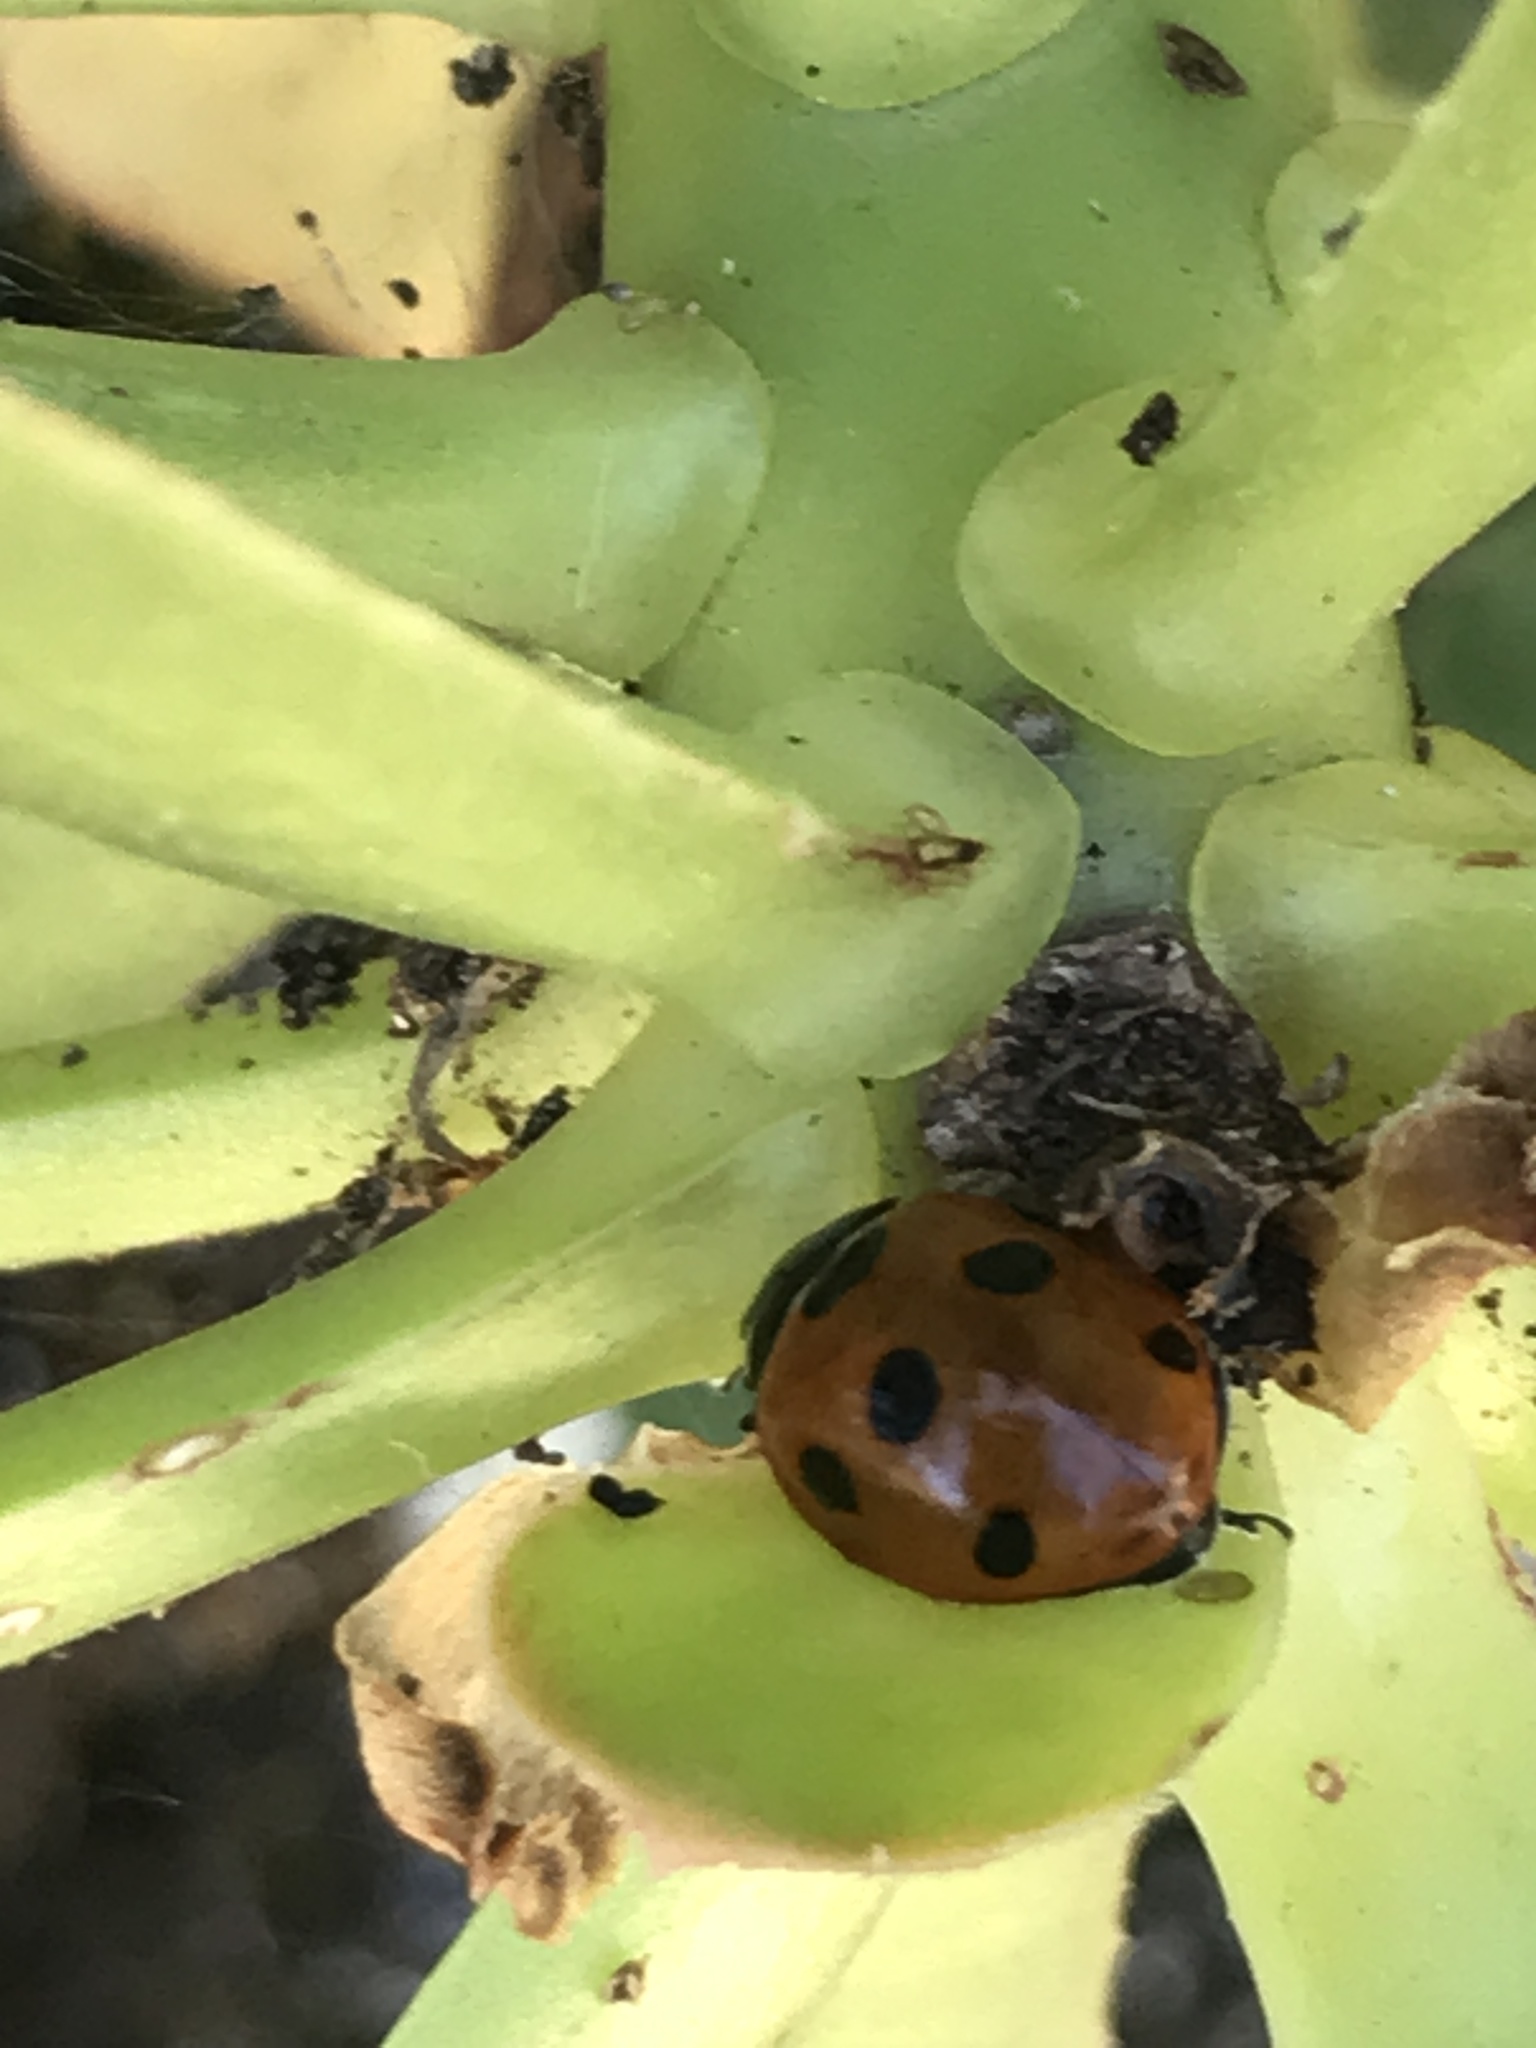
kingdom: Animalia
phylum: Arthropoda
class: Insecta
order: Coleoptera
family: Coccinellidae
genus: Coccinella
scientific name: Coccinella algerica
